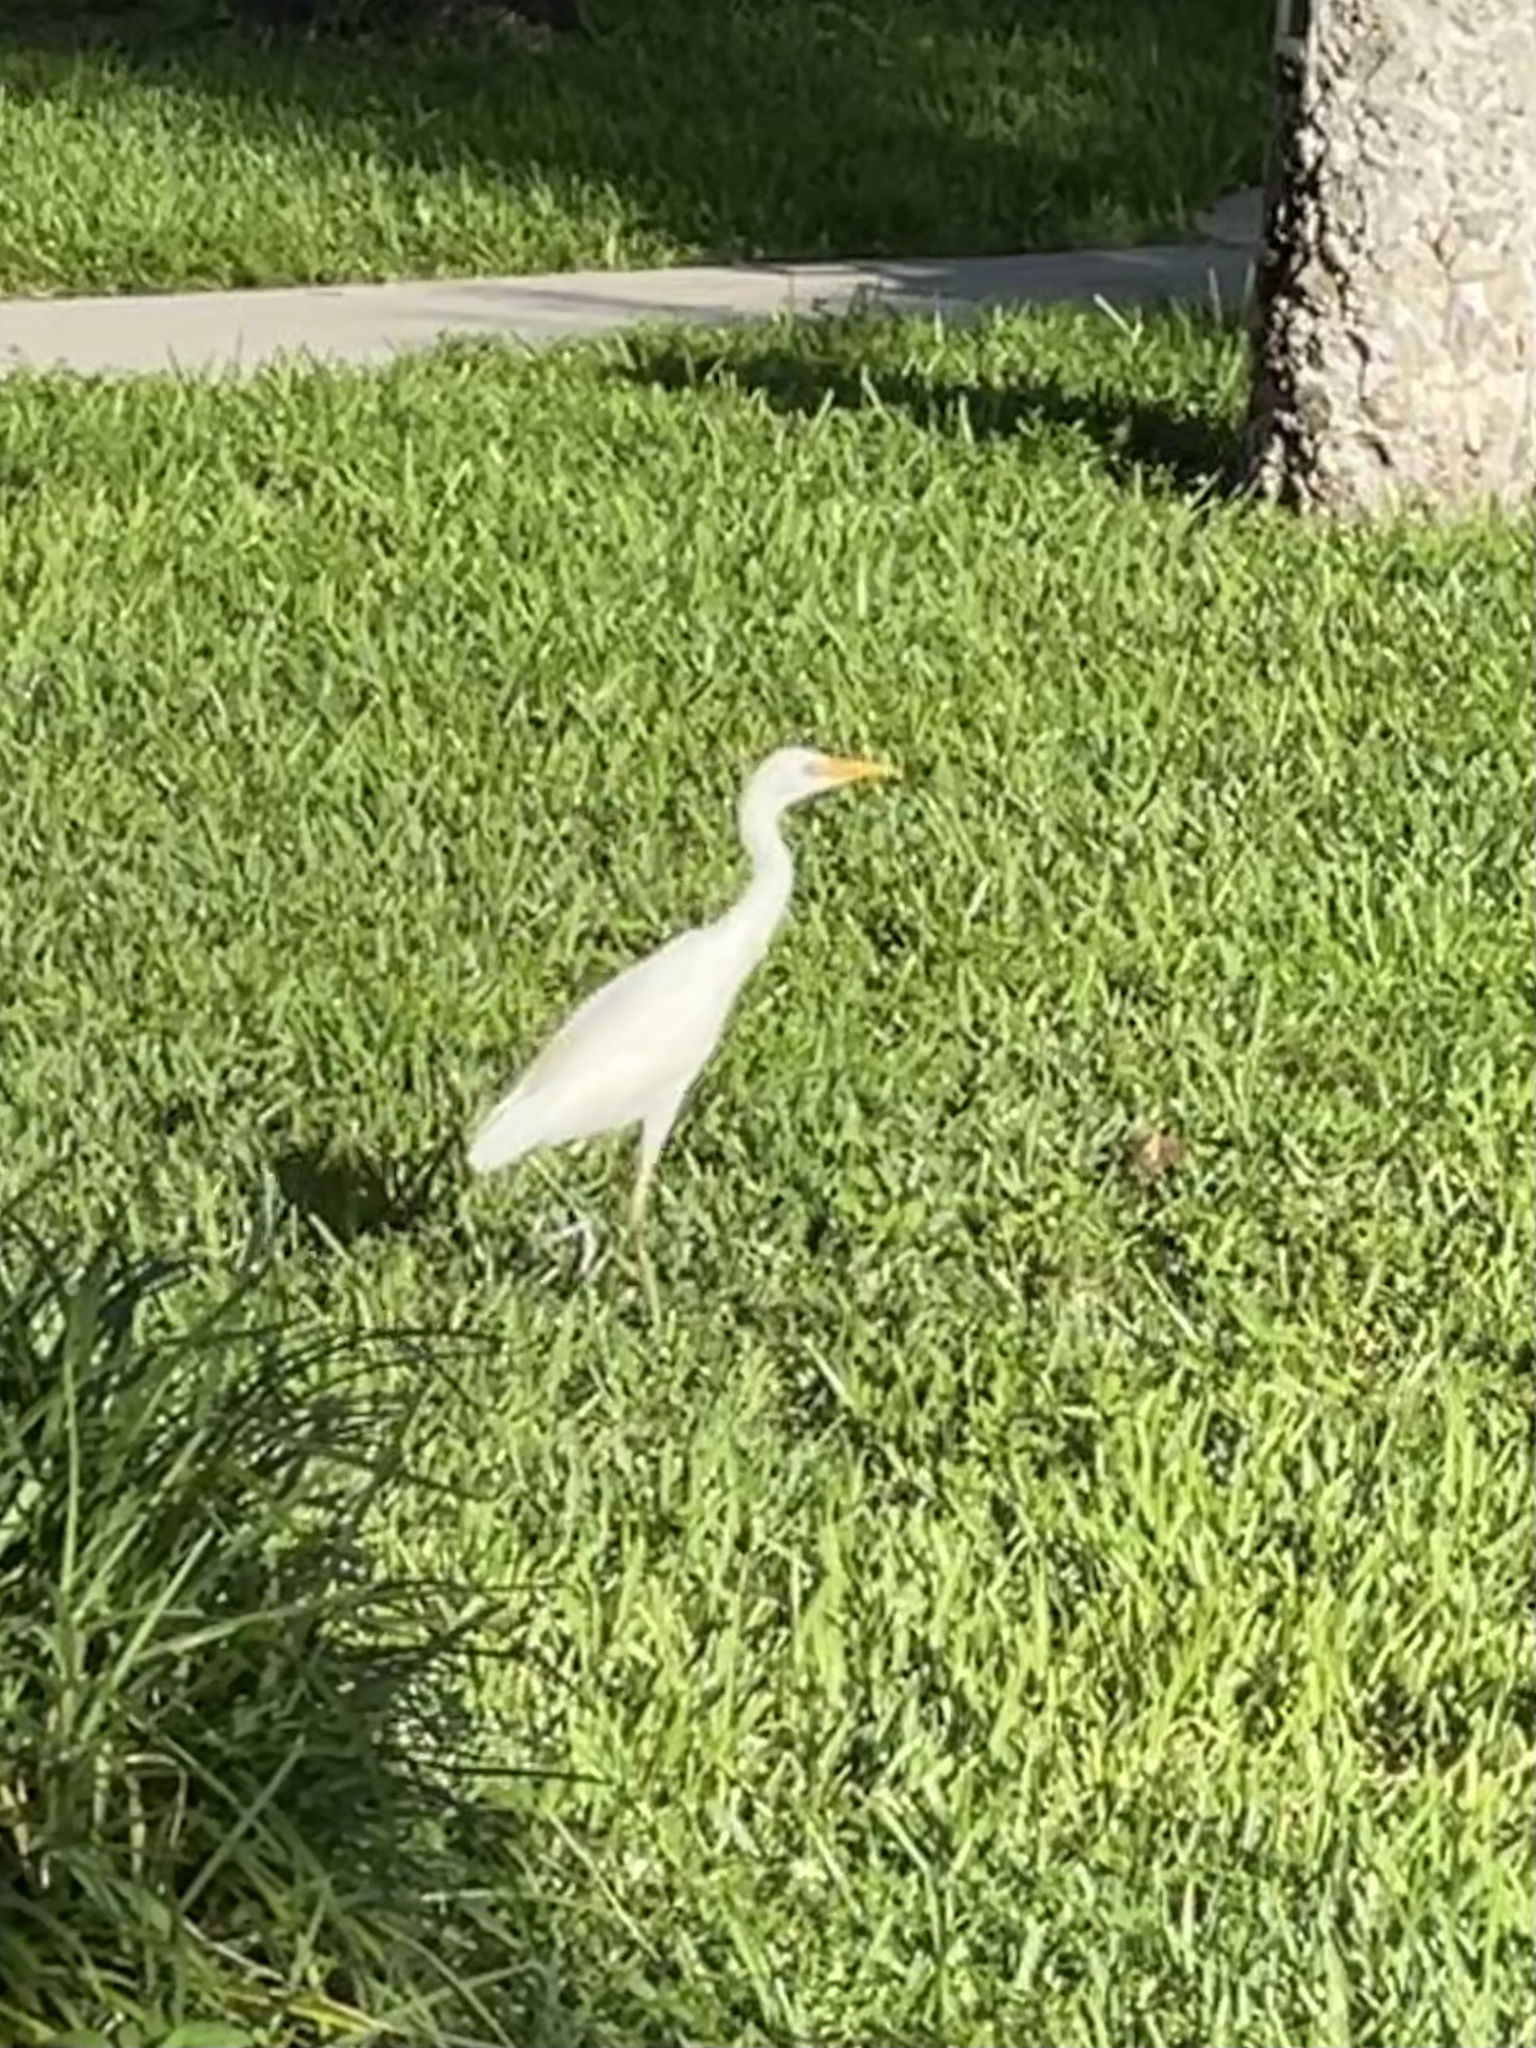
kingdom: Animalia
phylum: Chordata
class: Aves
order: Pelecaniformes
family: Ardeidae
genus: Bubulcus
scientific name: Bubulcus ibis
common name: Cattle egret
